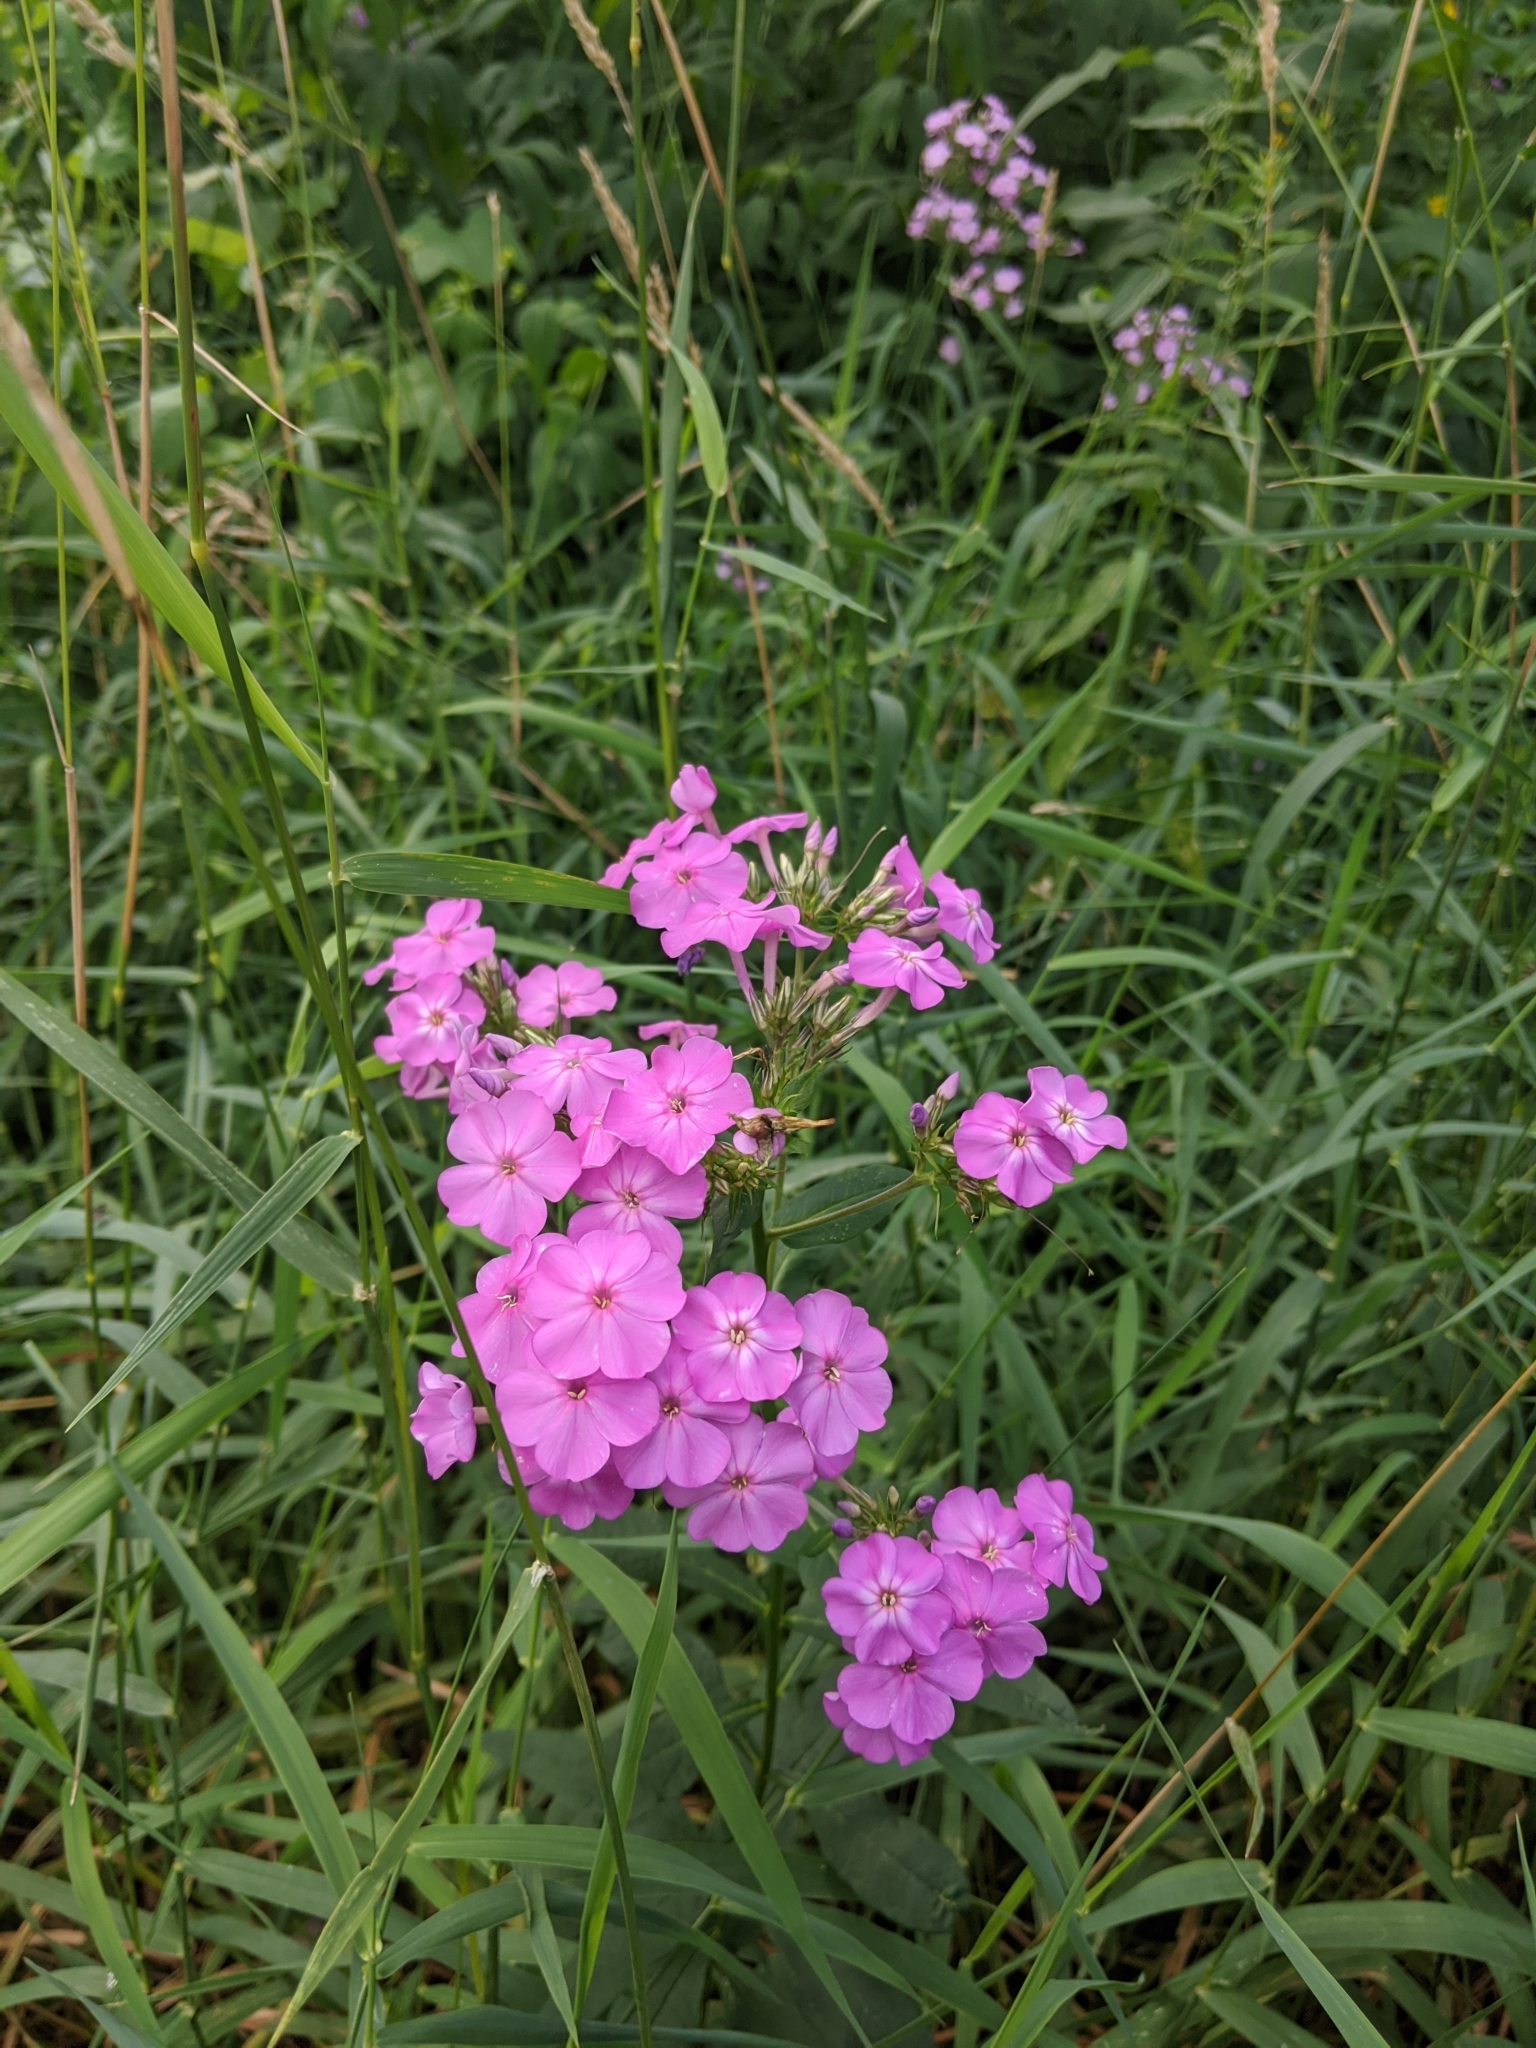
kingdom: Plantae
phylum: Tracheophyta
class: Magnoliopsida
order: Ericales
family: Polemoniaceae
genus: Phlox
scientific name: Phlox paniculata
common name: Fall phlox
